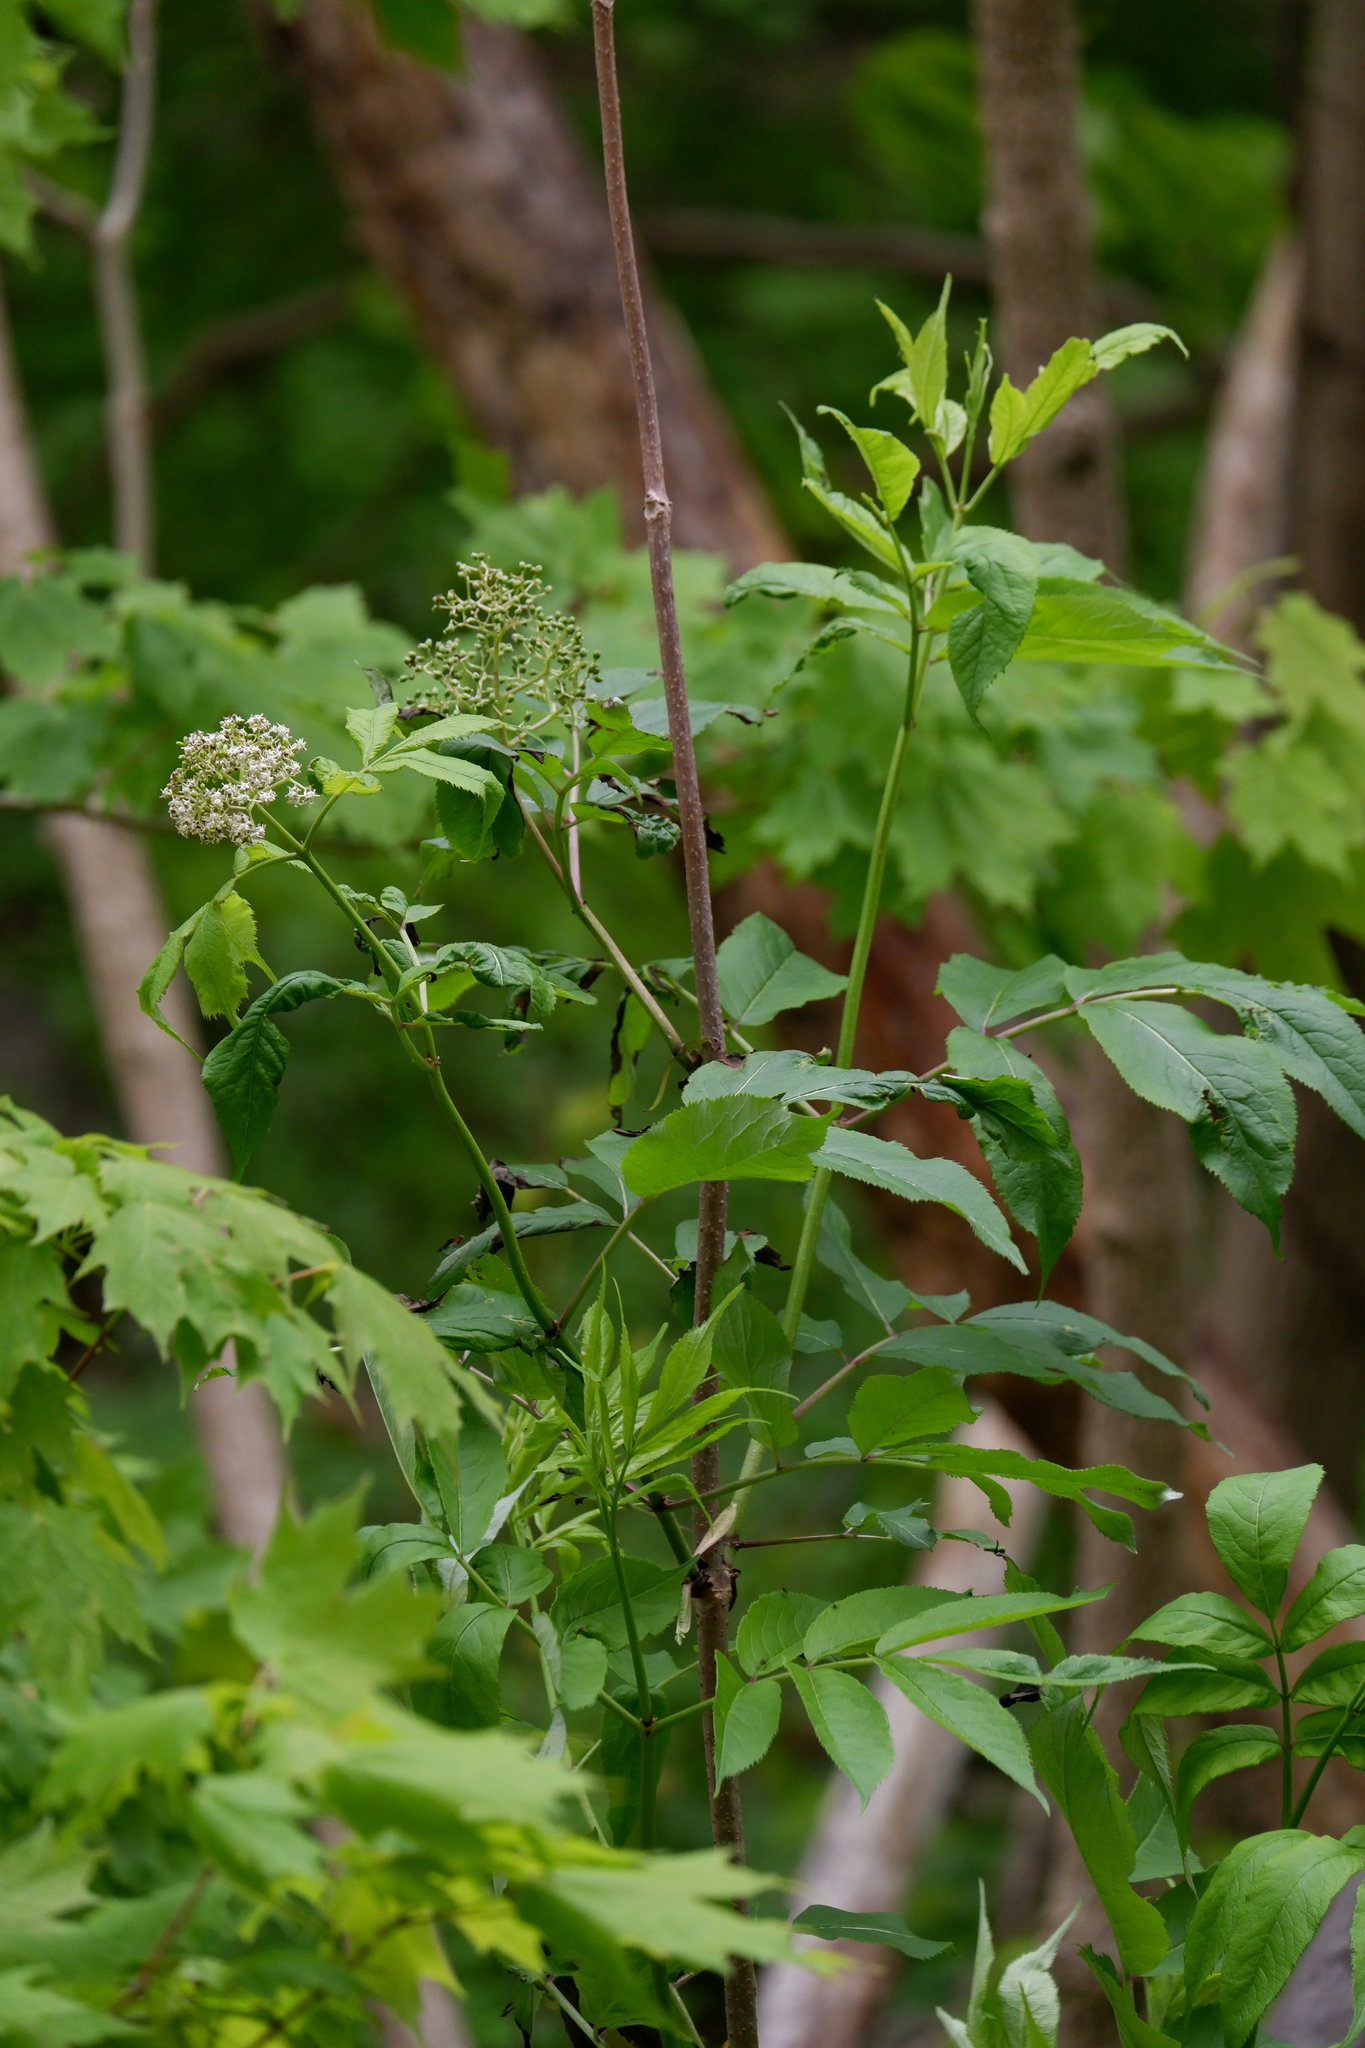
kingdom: Plantae
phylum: Tracheophyta
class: Magnoliopsida
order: Dipsacales
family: Viburnaceae
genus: Sambucus
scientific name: Sambucus racemosa
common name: Red-berried elder
